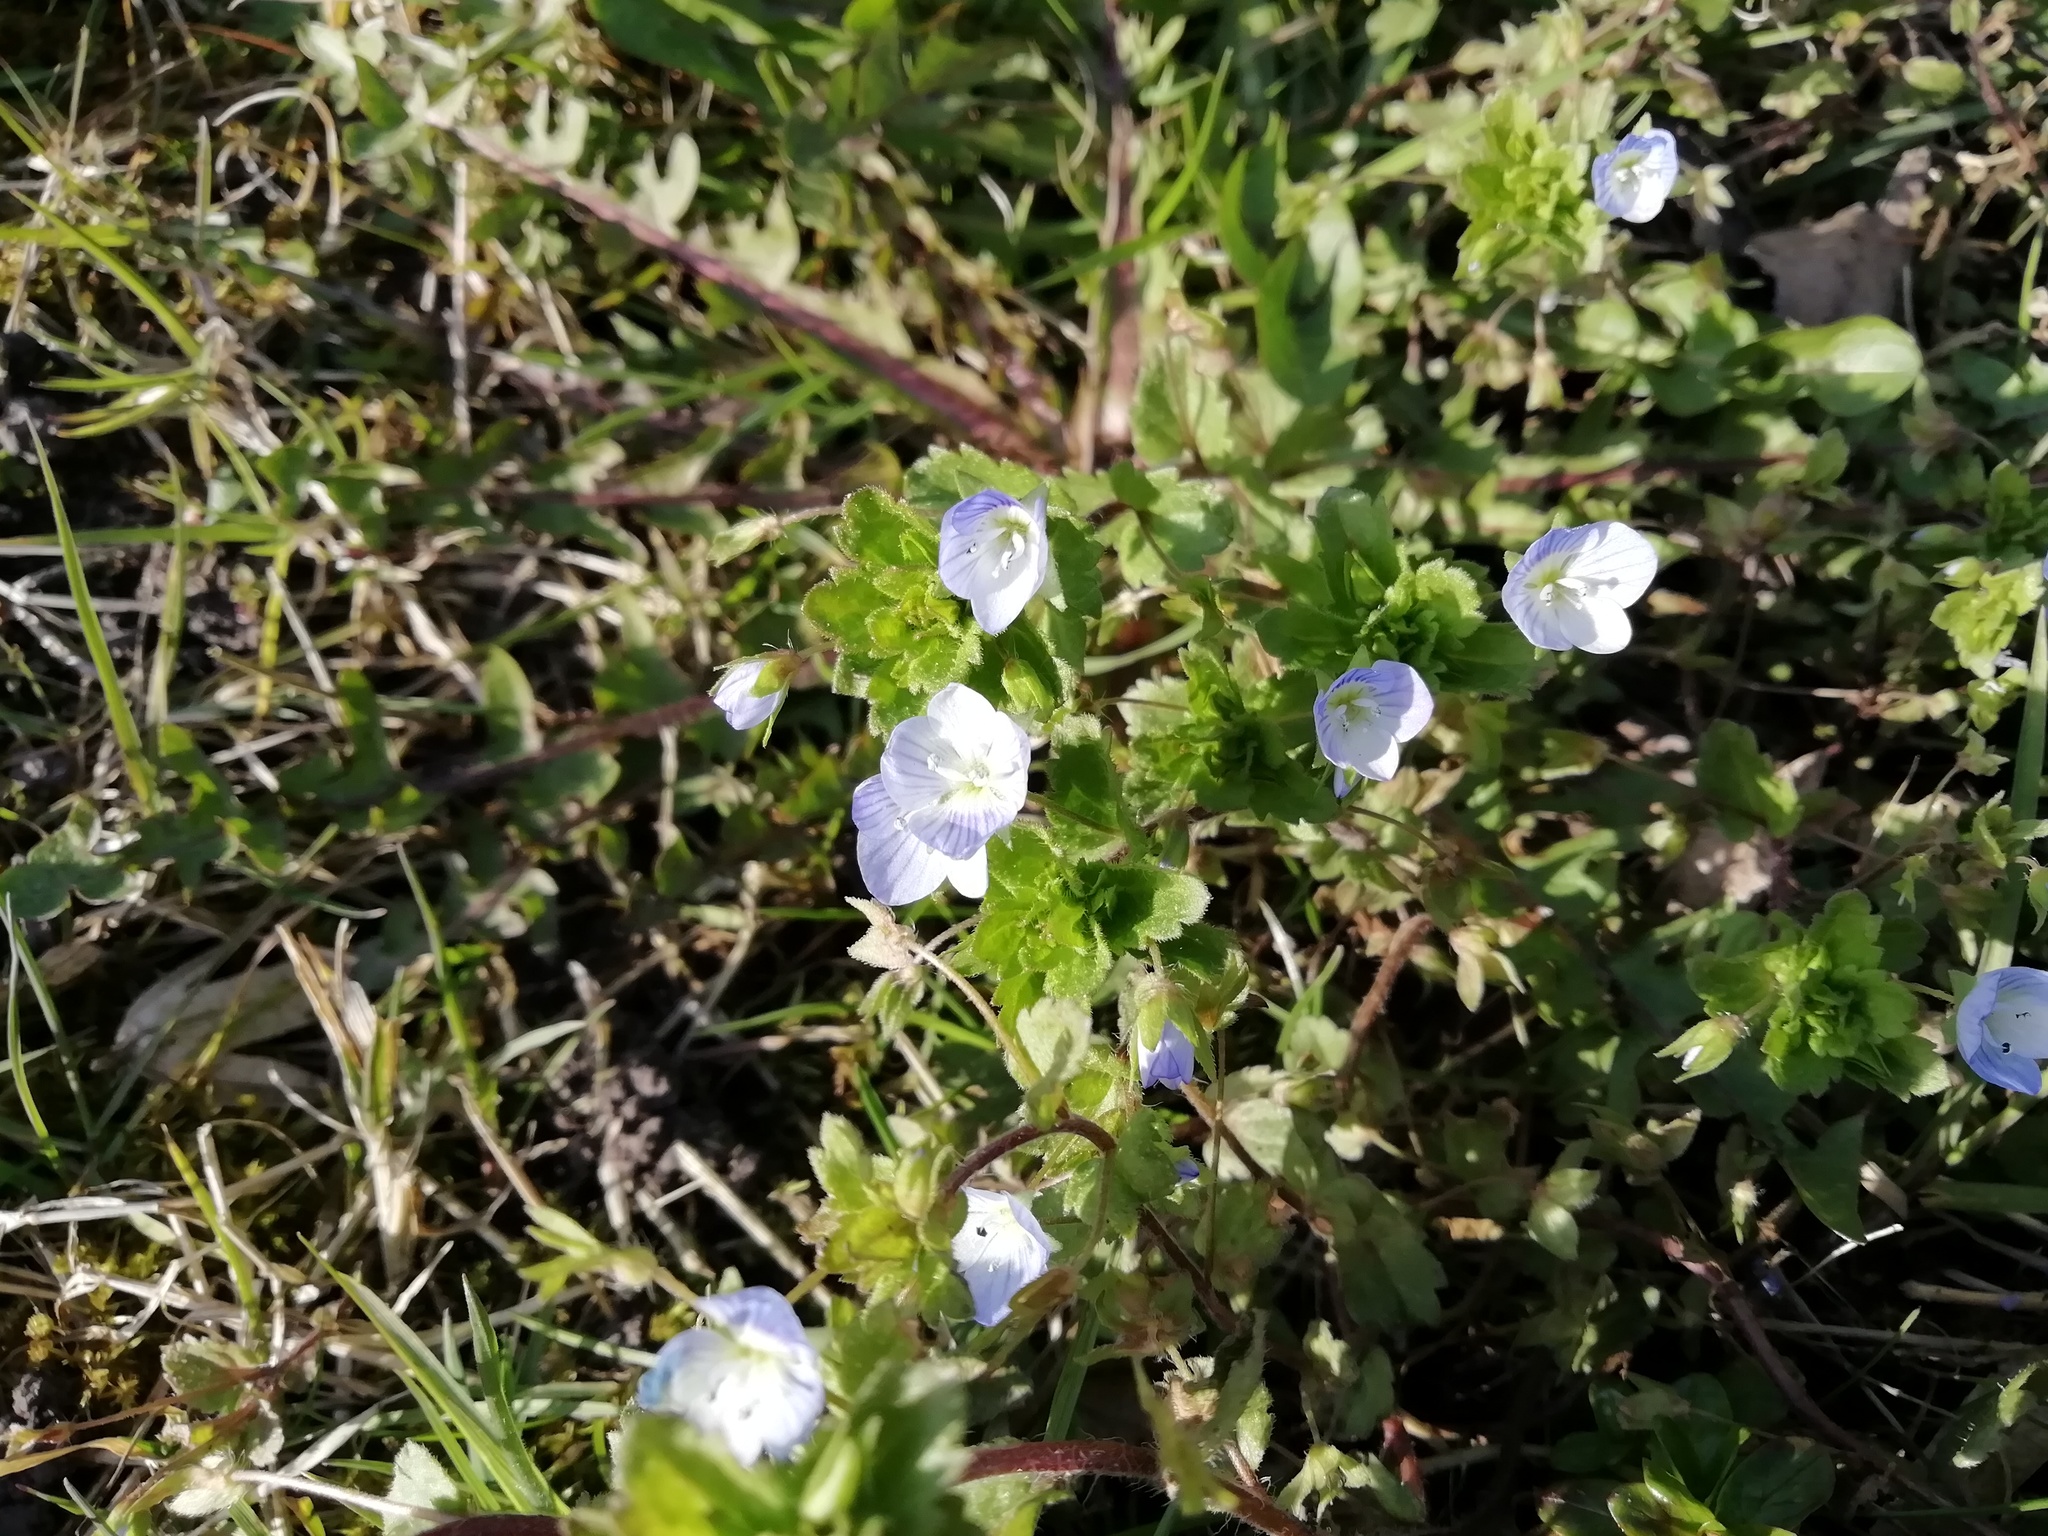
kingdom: Plantae
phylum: Tracheophyta
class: Magnoliopsida
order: Lamiales
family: Plantaginaceae
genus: Veronica
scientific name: Veronica persica
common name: Common field-speedwell
